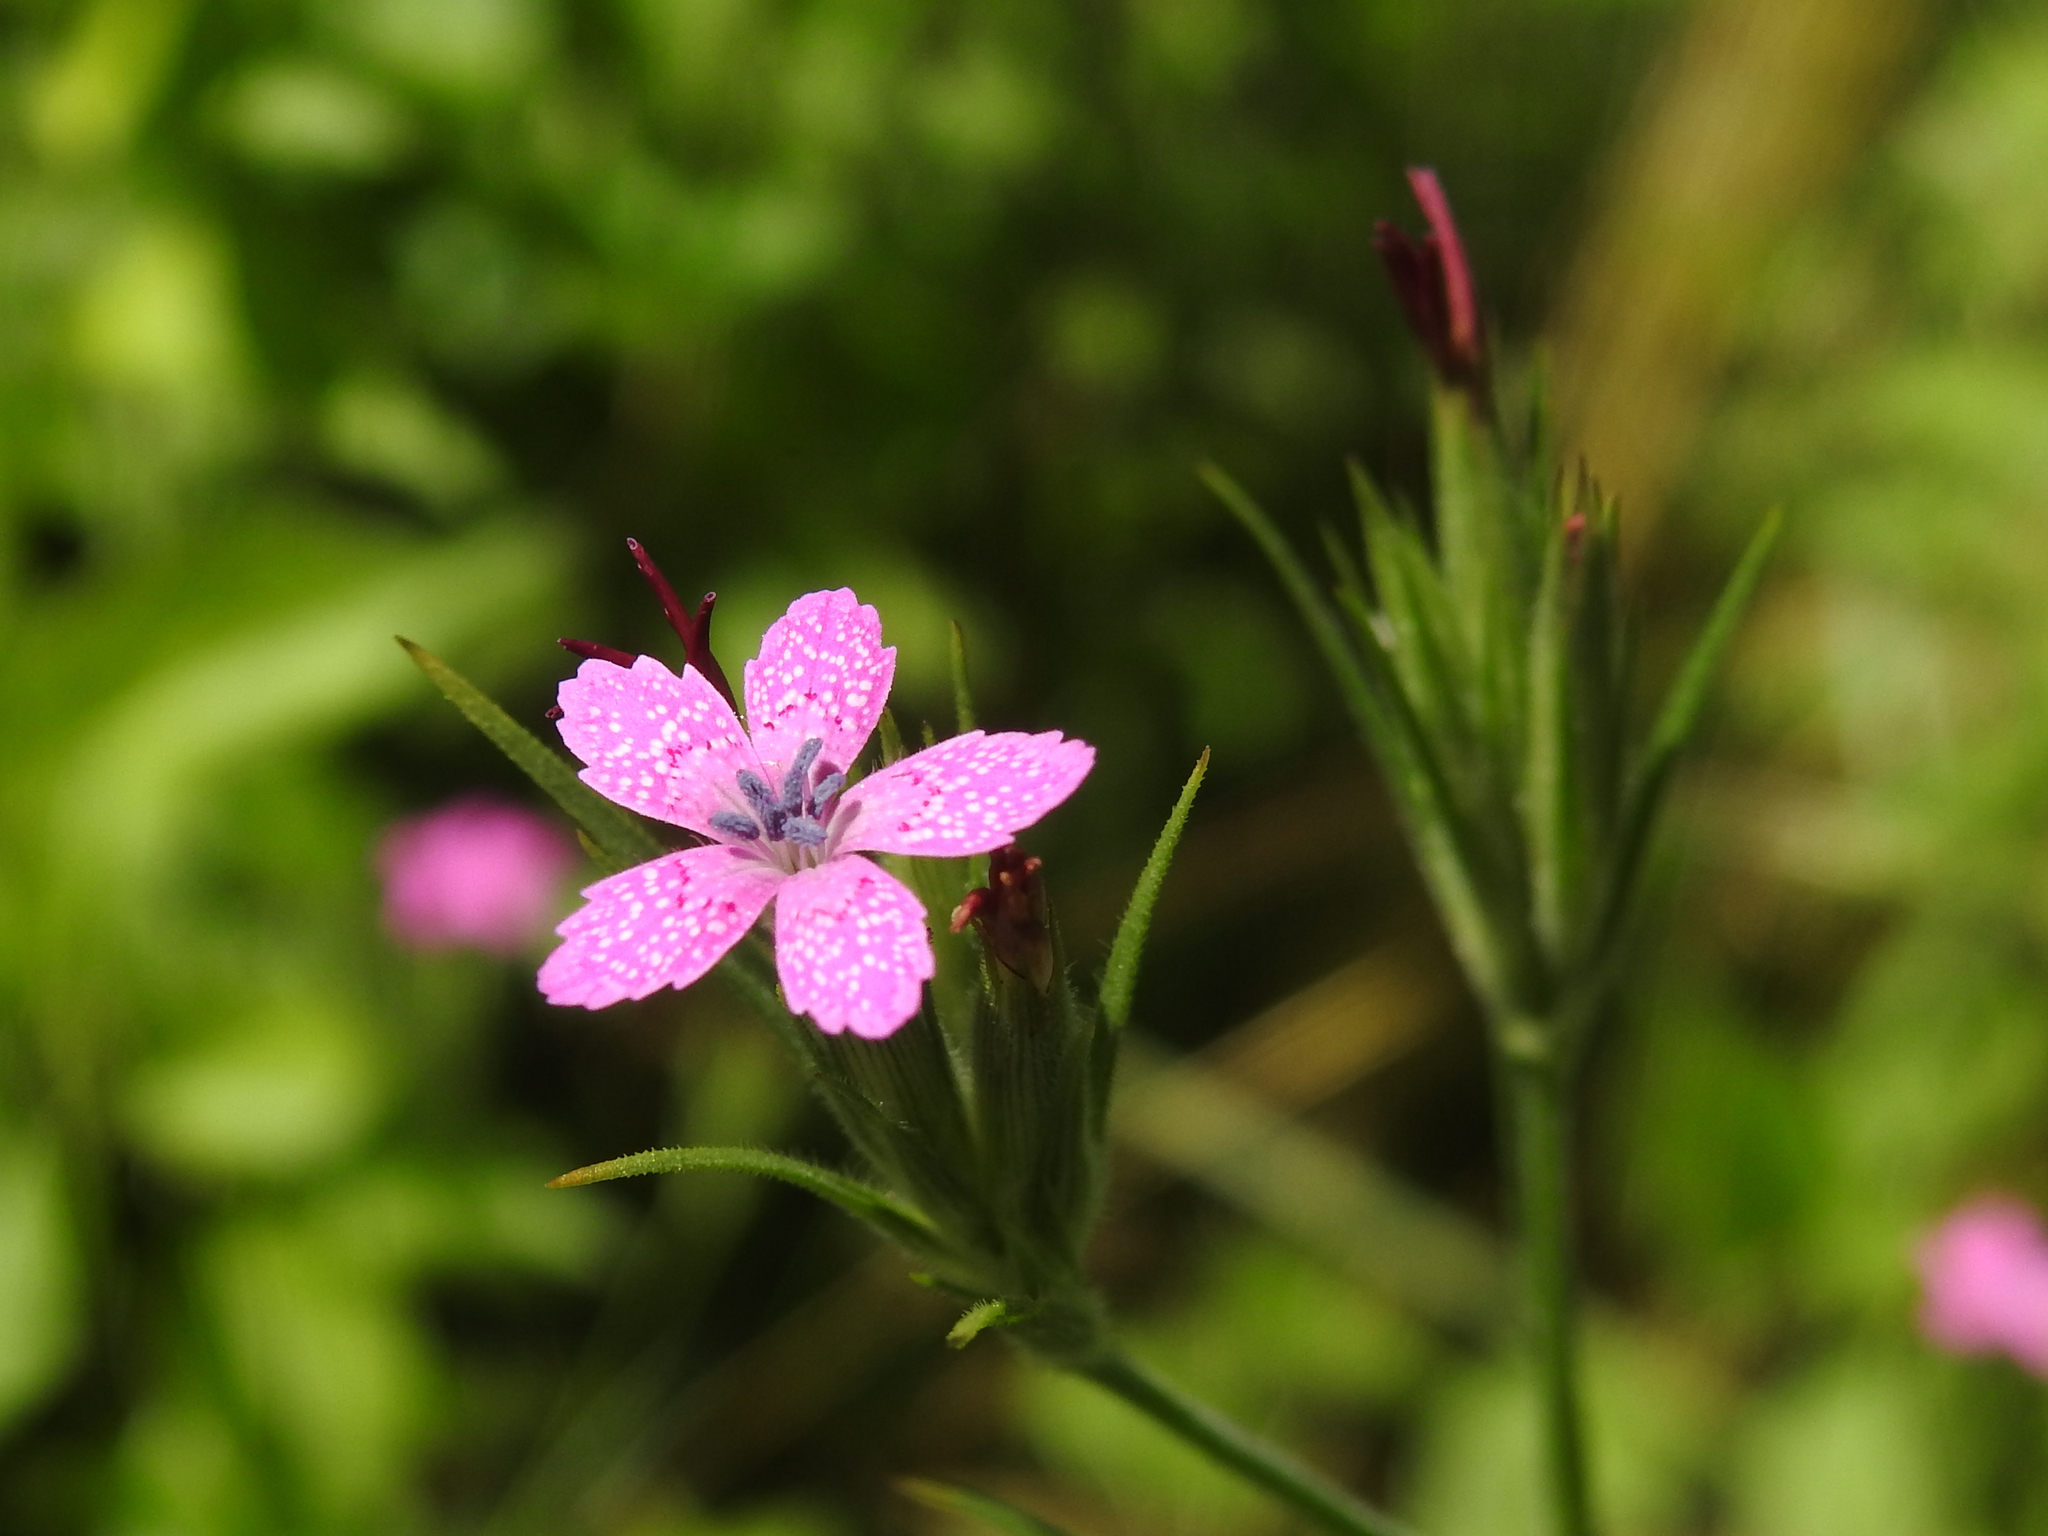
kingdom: Plantae
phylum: Tracheophyta
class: Magnoliopsida
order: Caryophyllales
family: Caryophyllaceae
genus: Dianthus
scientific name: Dianthus armeria
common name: Deptford pink
